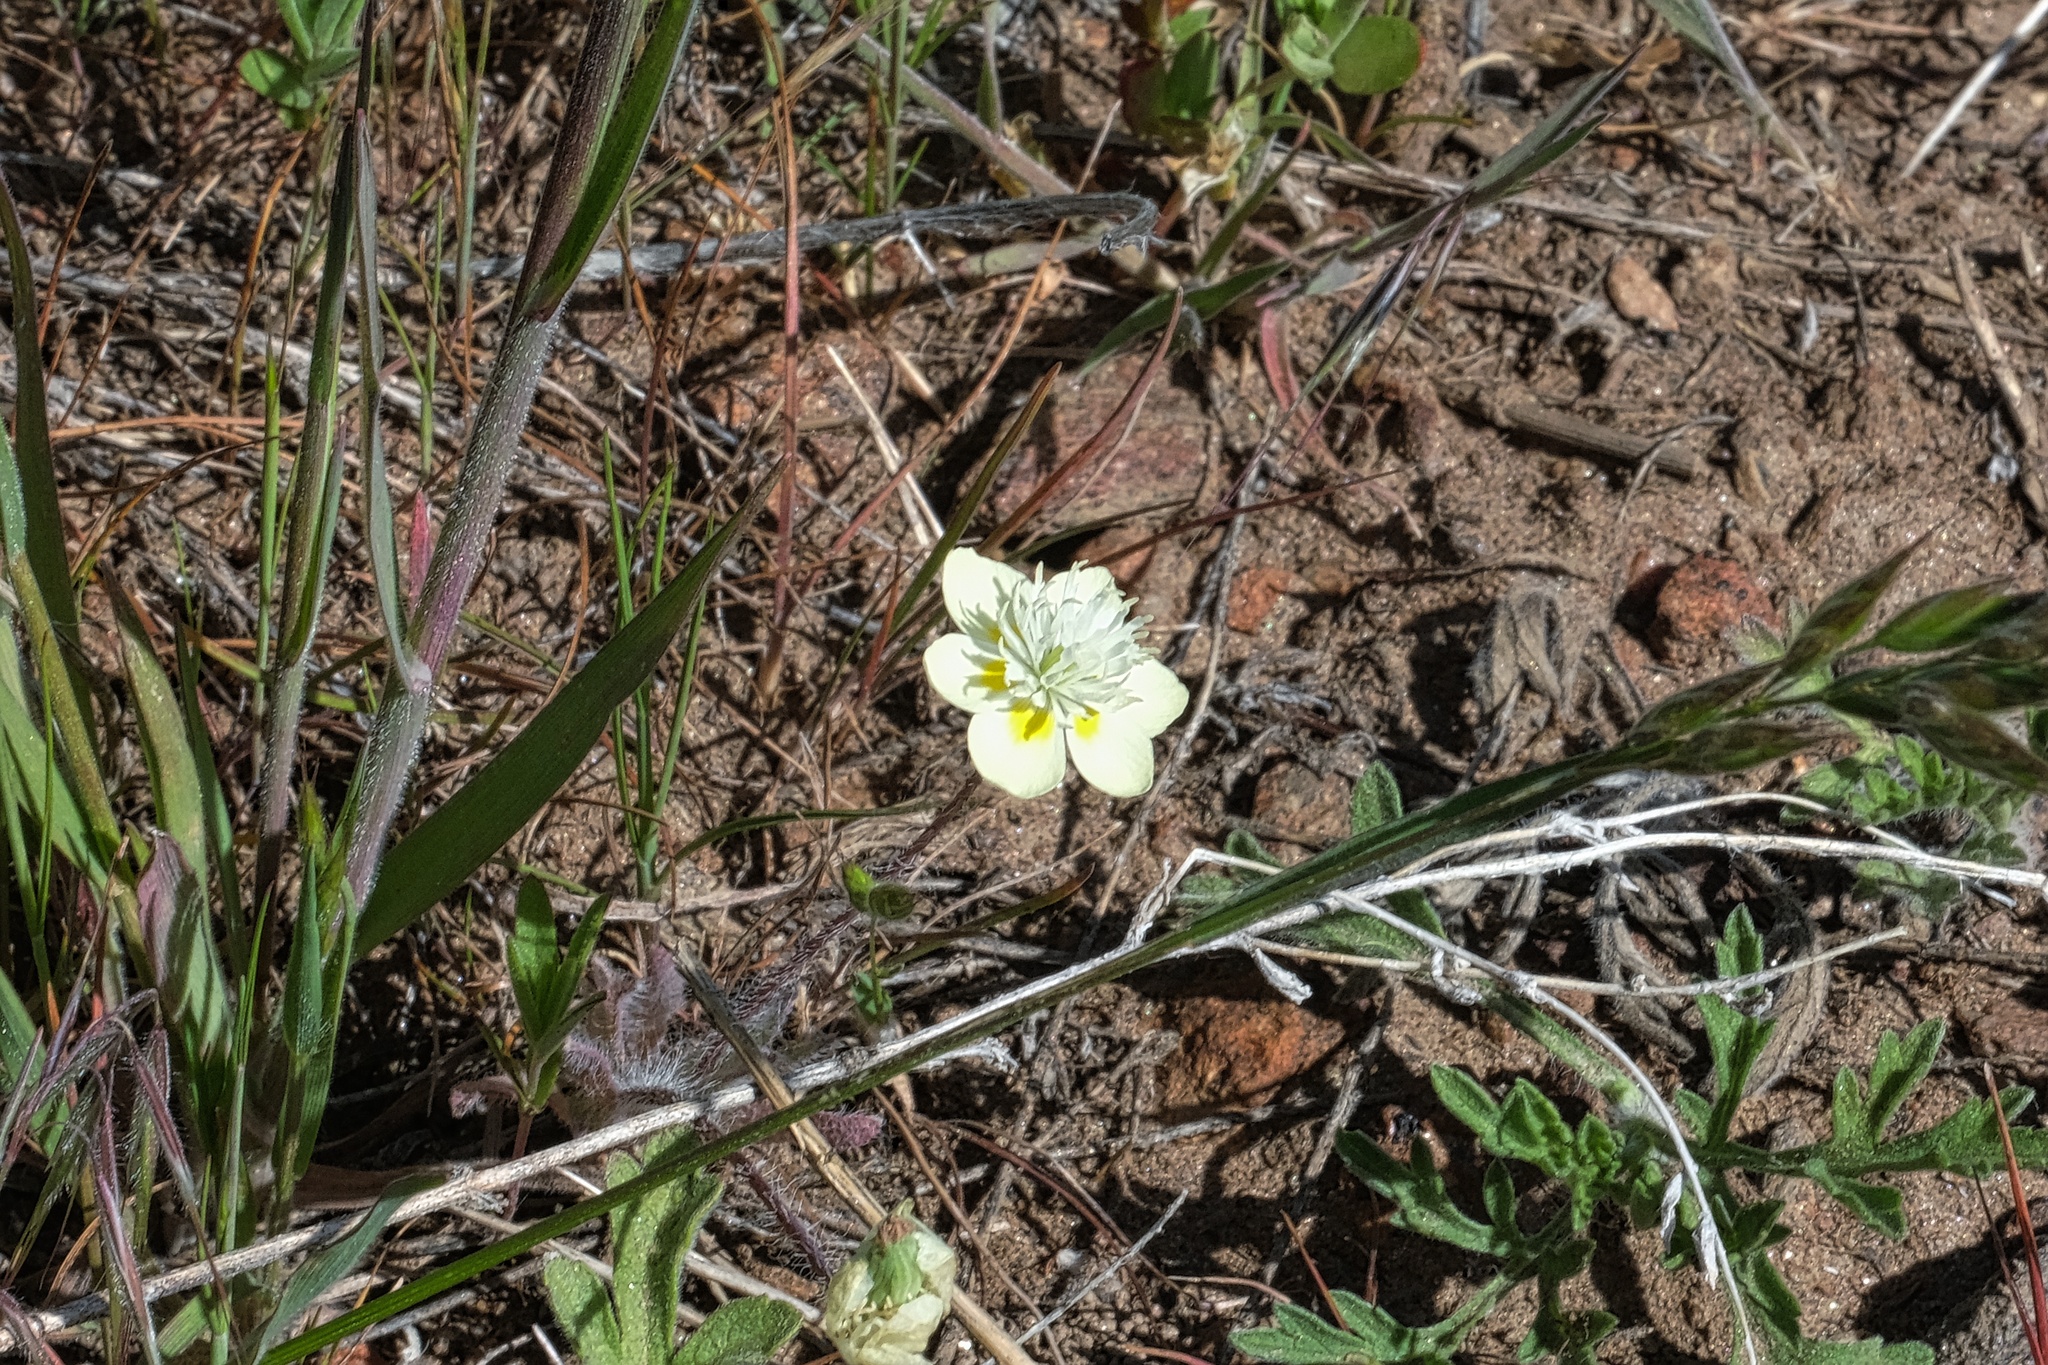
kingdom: Plantae
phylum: Tracheophyta
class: Magnoliopsida
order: Ranunculales
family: Papaveraceae
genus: Platystemon
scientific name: Platystemon californicus
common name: Cream-cups
